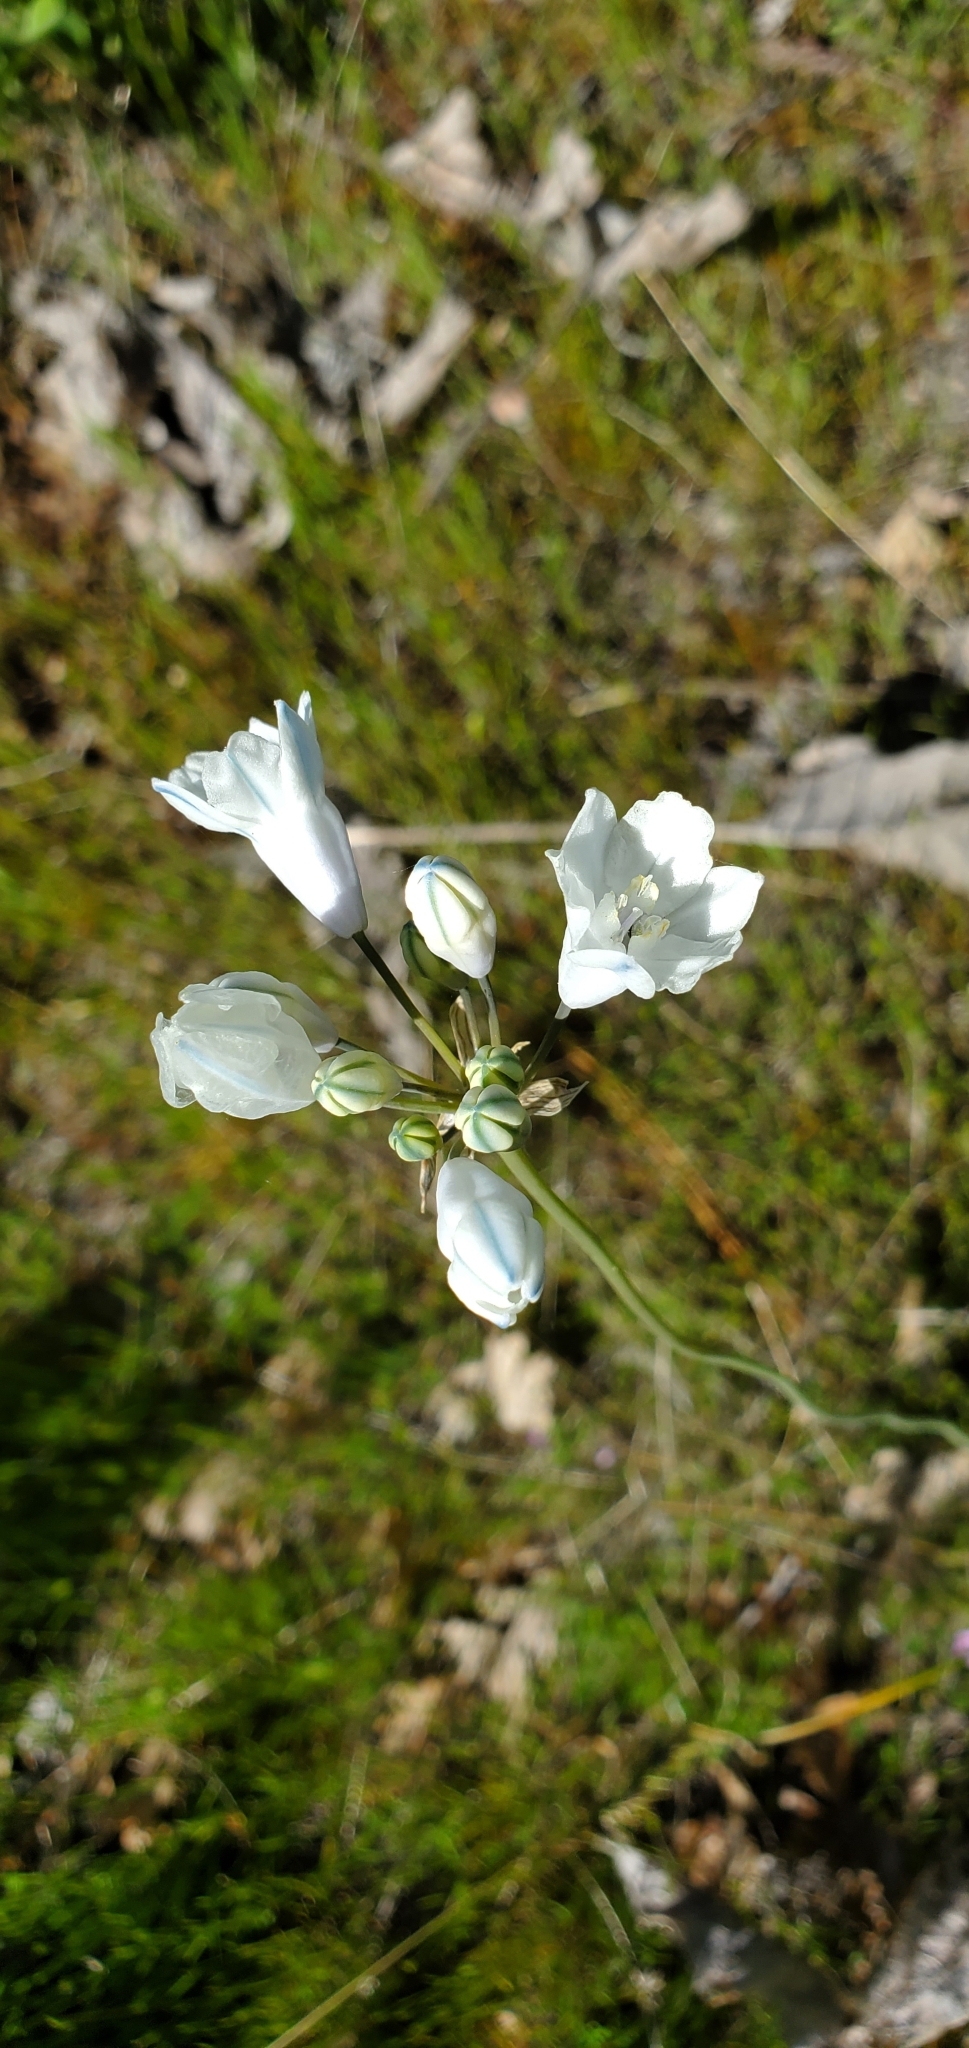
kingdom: Plantae
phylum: Tracheophyta
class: Liliopsida
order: Asparagales
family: Asparagaceae
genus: Triteleia
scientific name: Triteleia grandiflora
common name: Wild hyacinth
